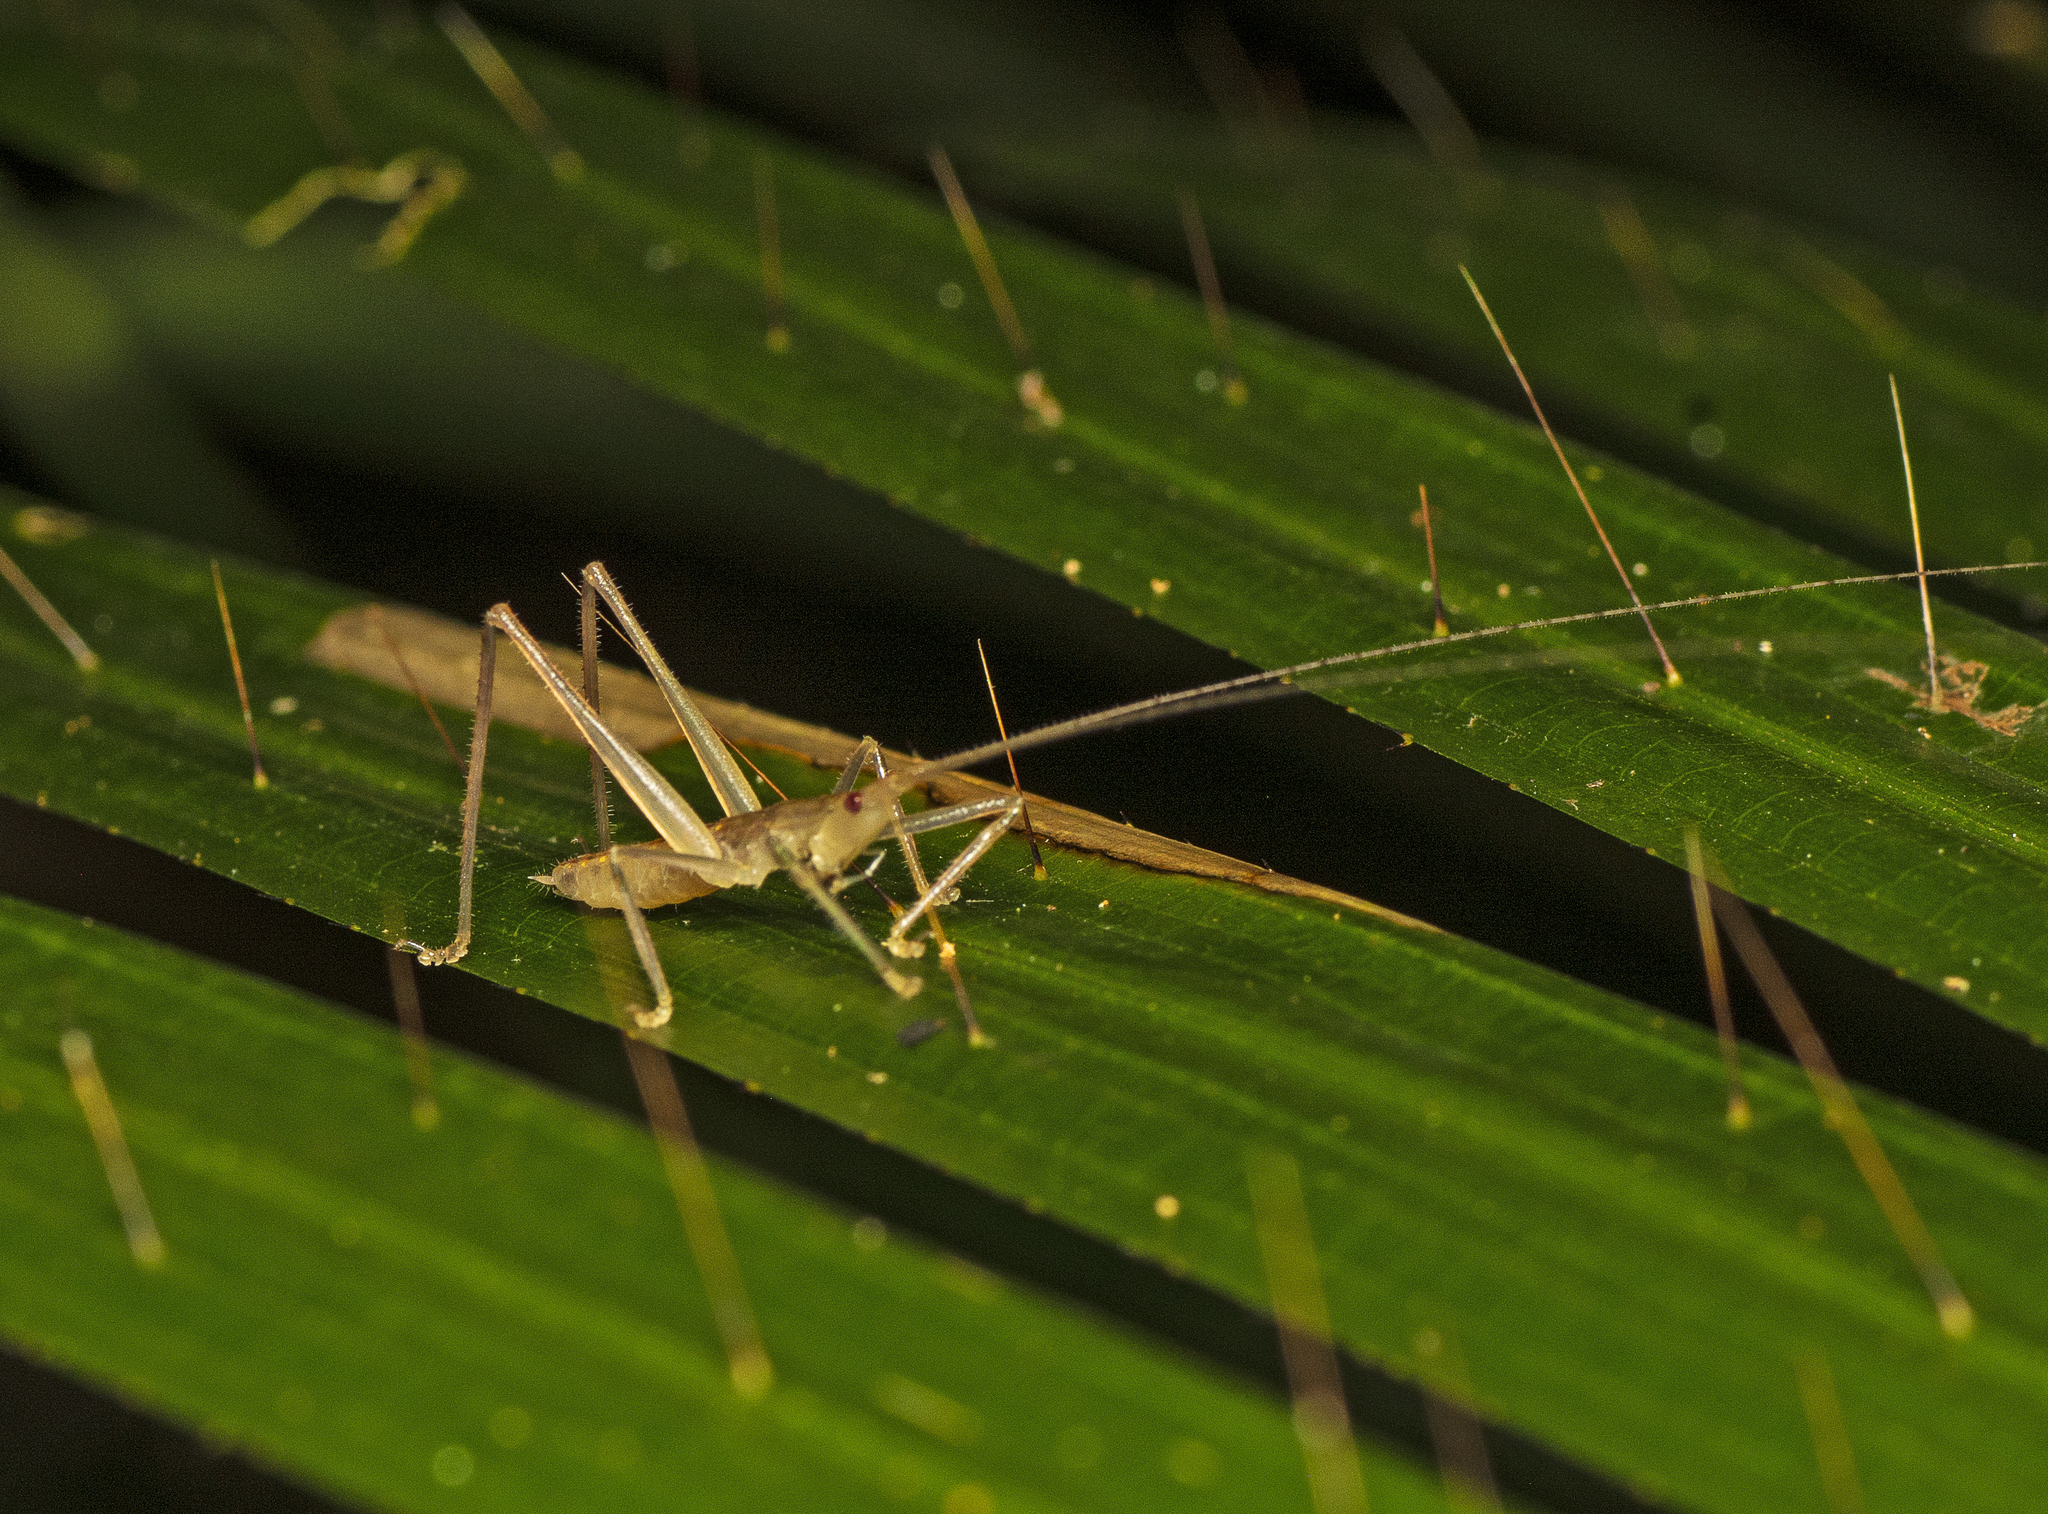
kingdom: Animalia
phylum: Arthropoda
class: Insecta
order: Orthoptera
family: Tettigoniidae
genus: Greenagraecia
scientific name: Greenagraecia attenuata
